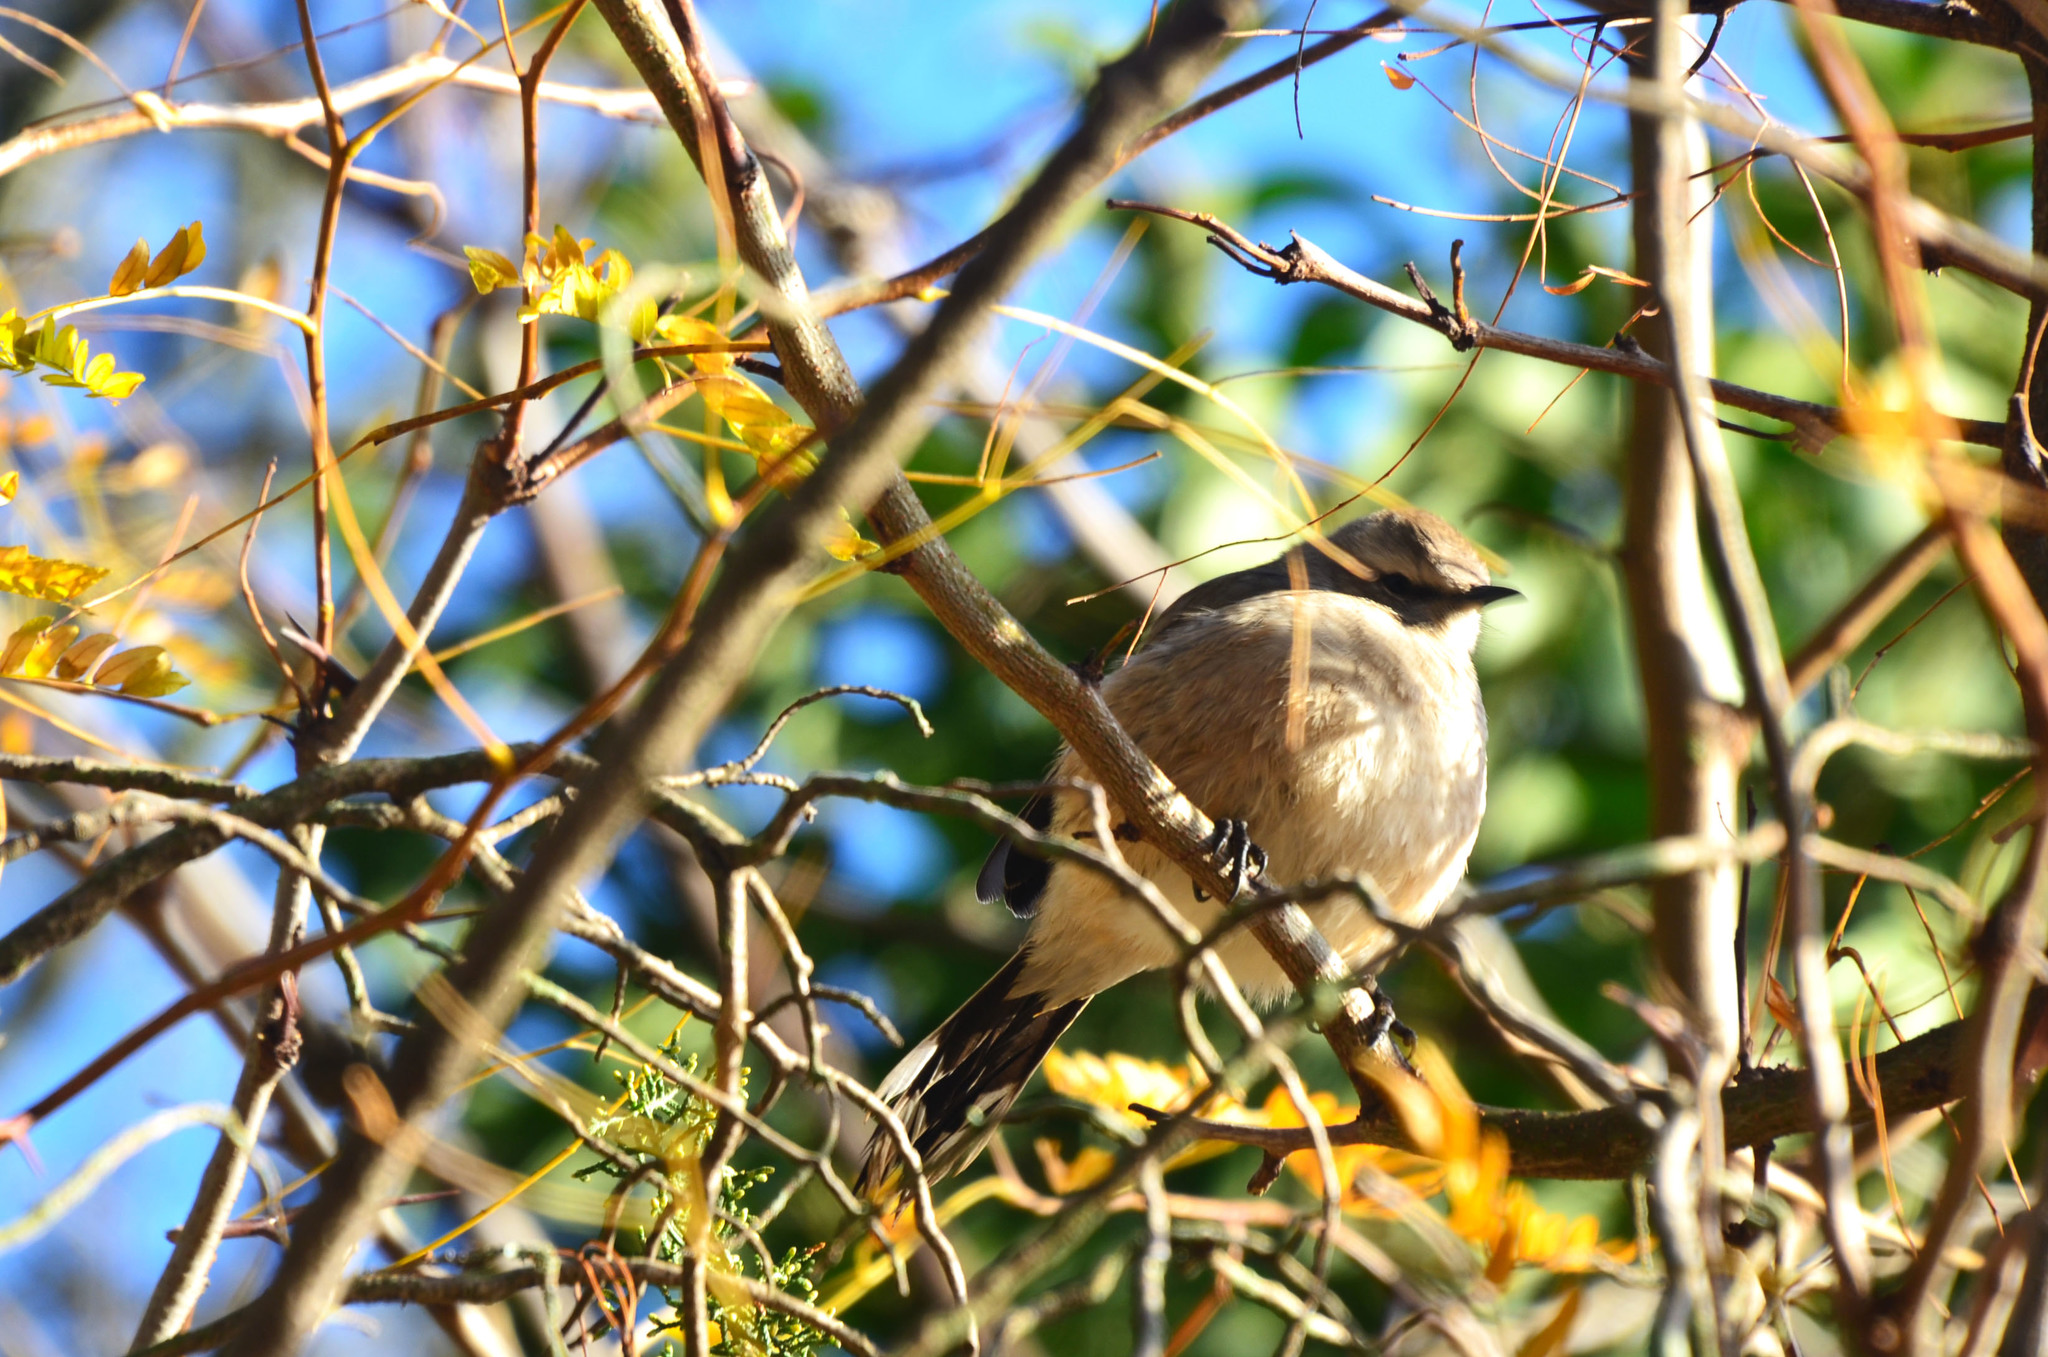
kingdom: Animalia
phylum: Chordata
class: Aves
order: Passeriformes
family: Mimidae
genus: Mimus
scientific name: Mimus patagonicus
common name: Patagonian mockingbird
